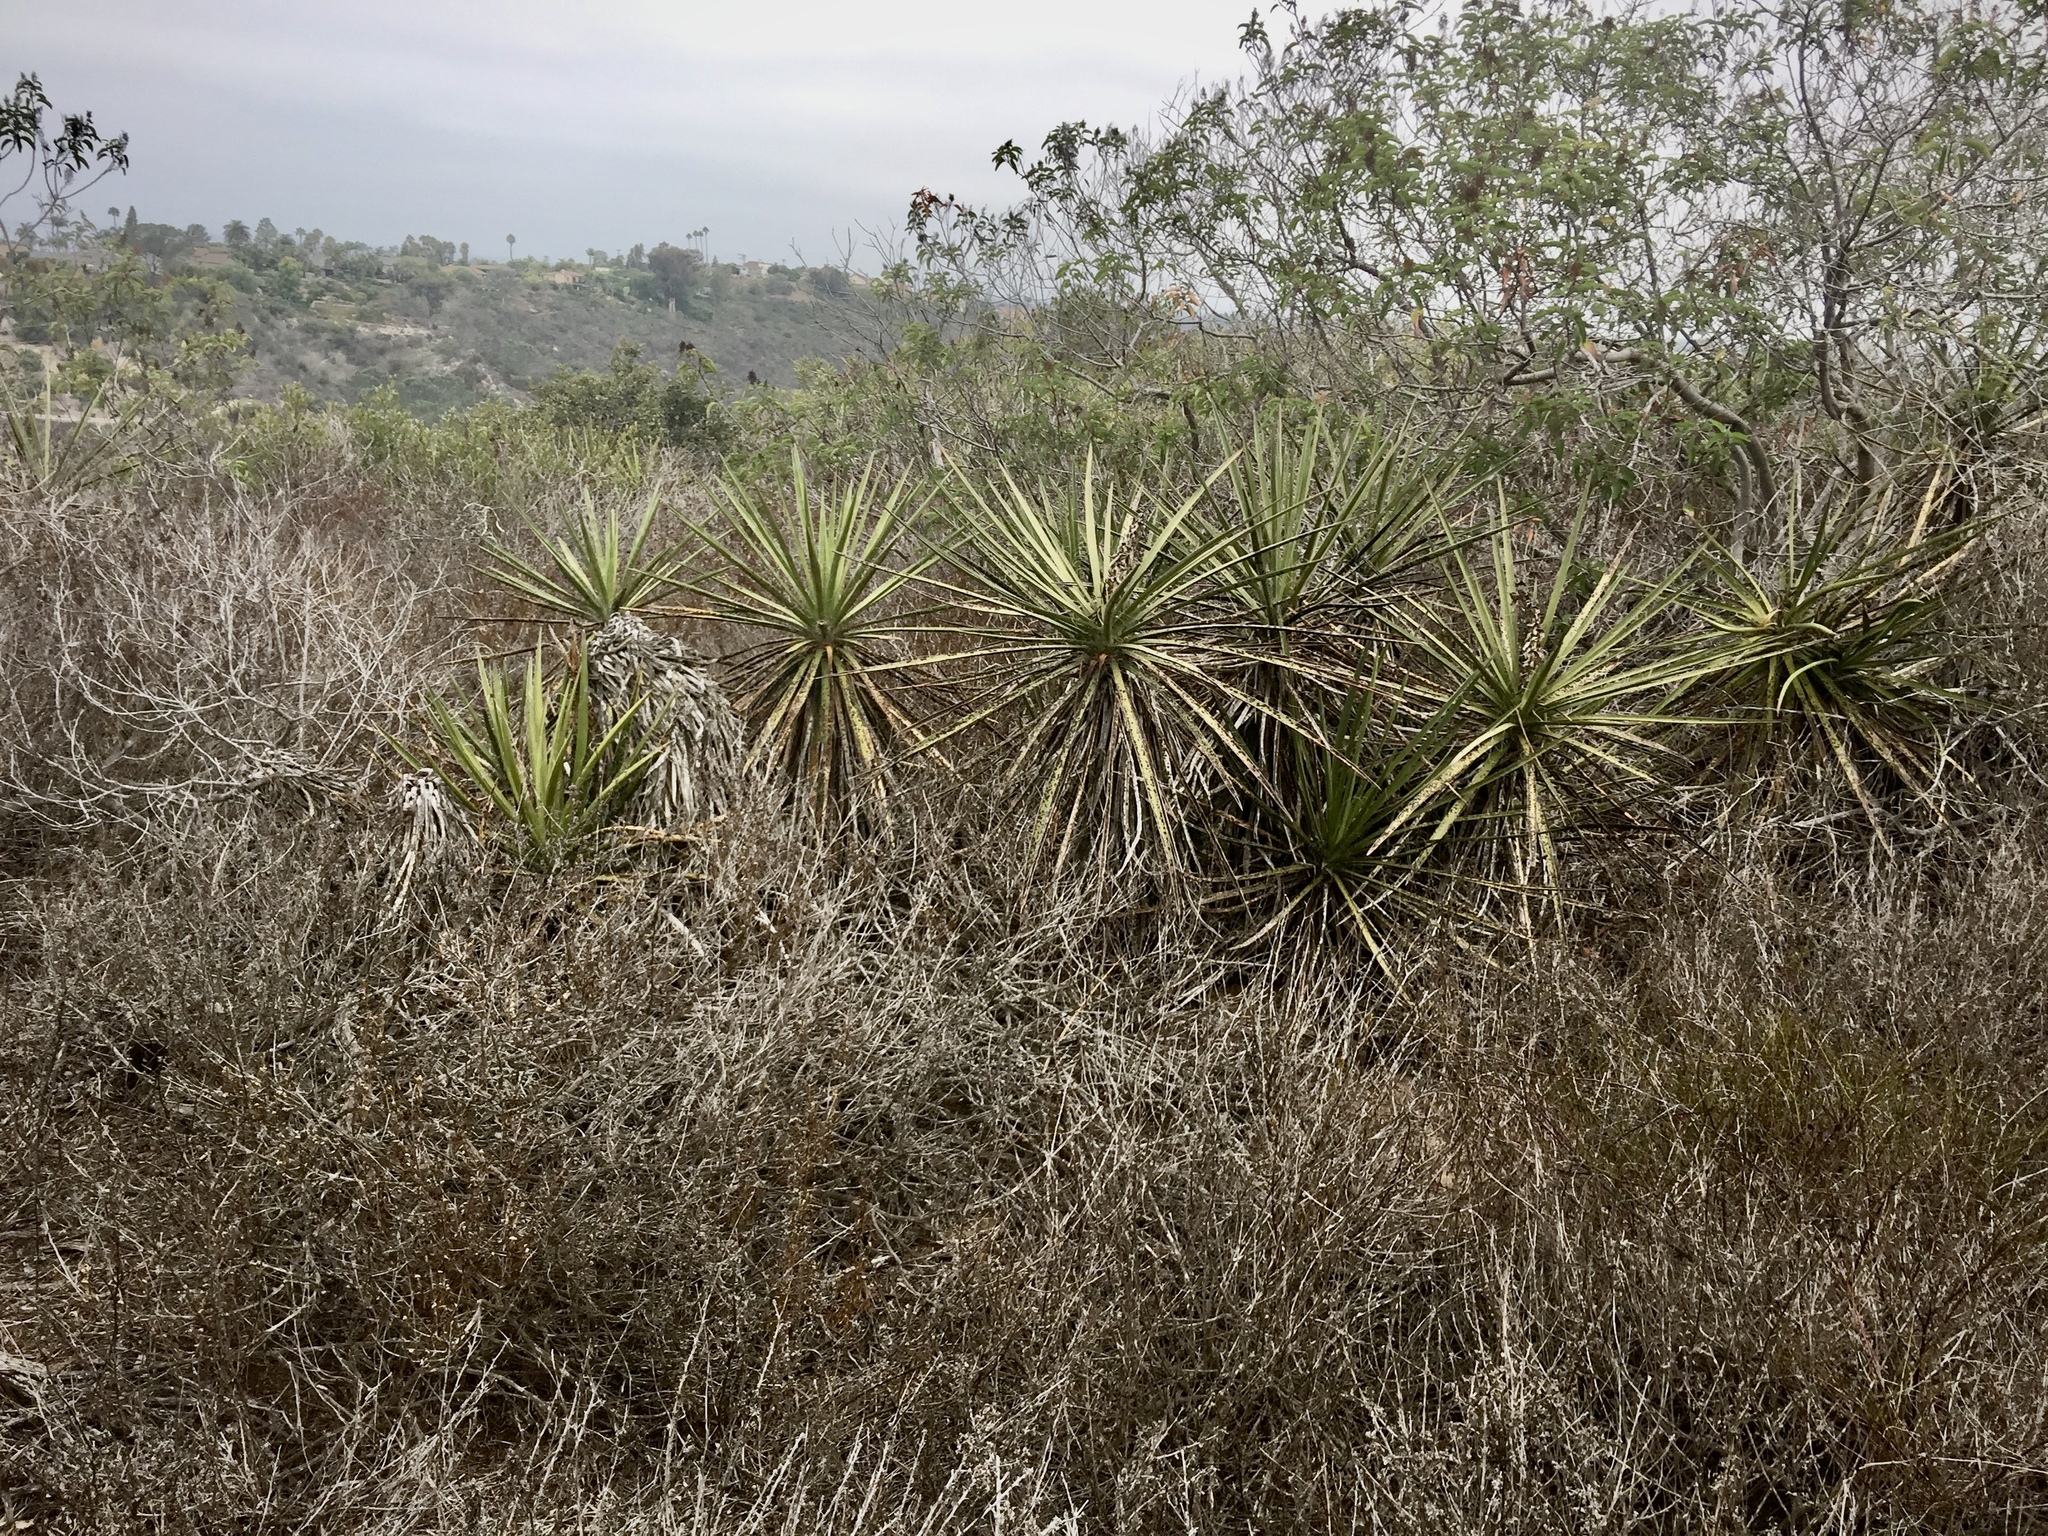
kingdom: Plantae
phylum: Tracheophyta
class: Liliopsida
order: Asparagales
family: Asparagaceae
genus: Yucca
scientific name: Yucca schidigera
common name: Mojave yucca
